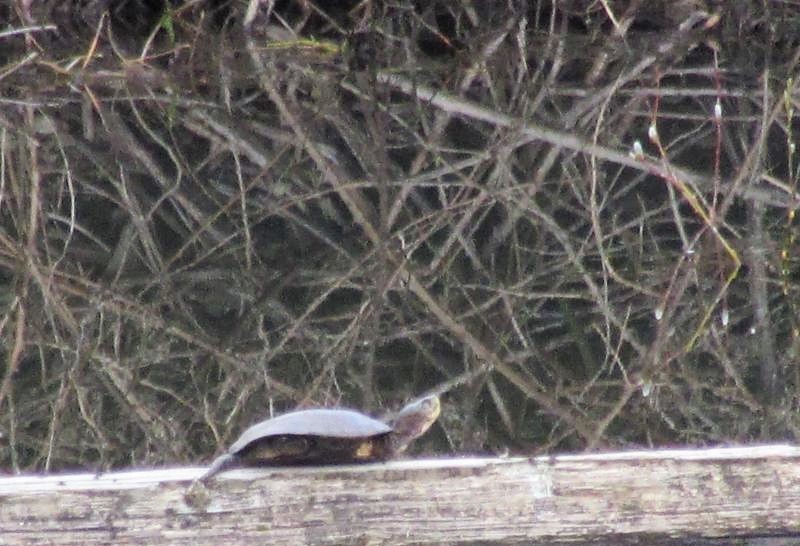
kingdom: Animalia
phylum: Chordata
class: Testudines
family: Emydidae
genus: Actinemys
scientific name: Actinemys marmorata
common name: Western pond turtle
